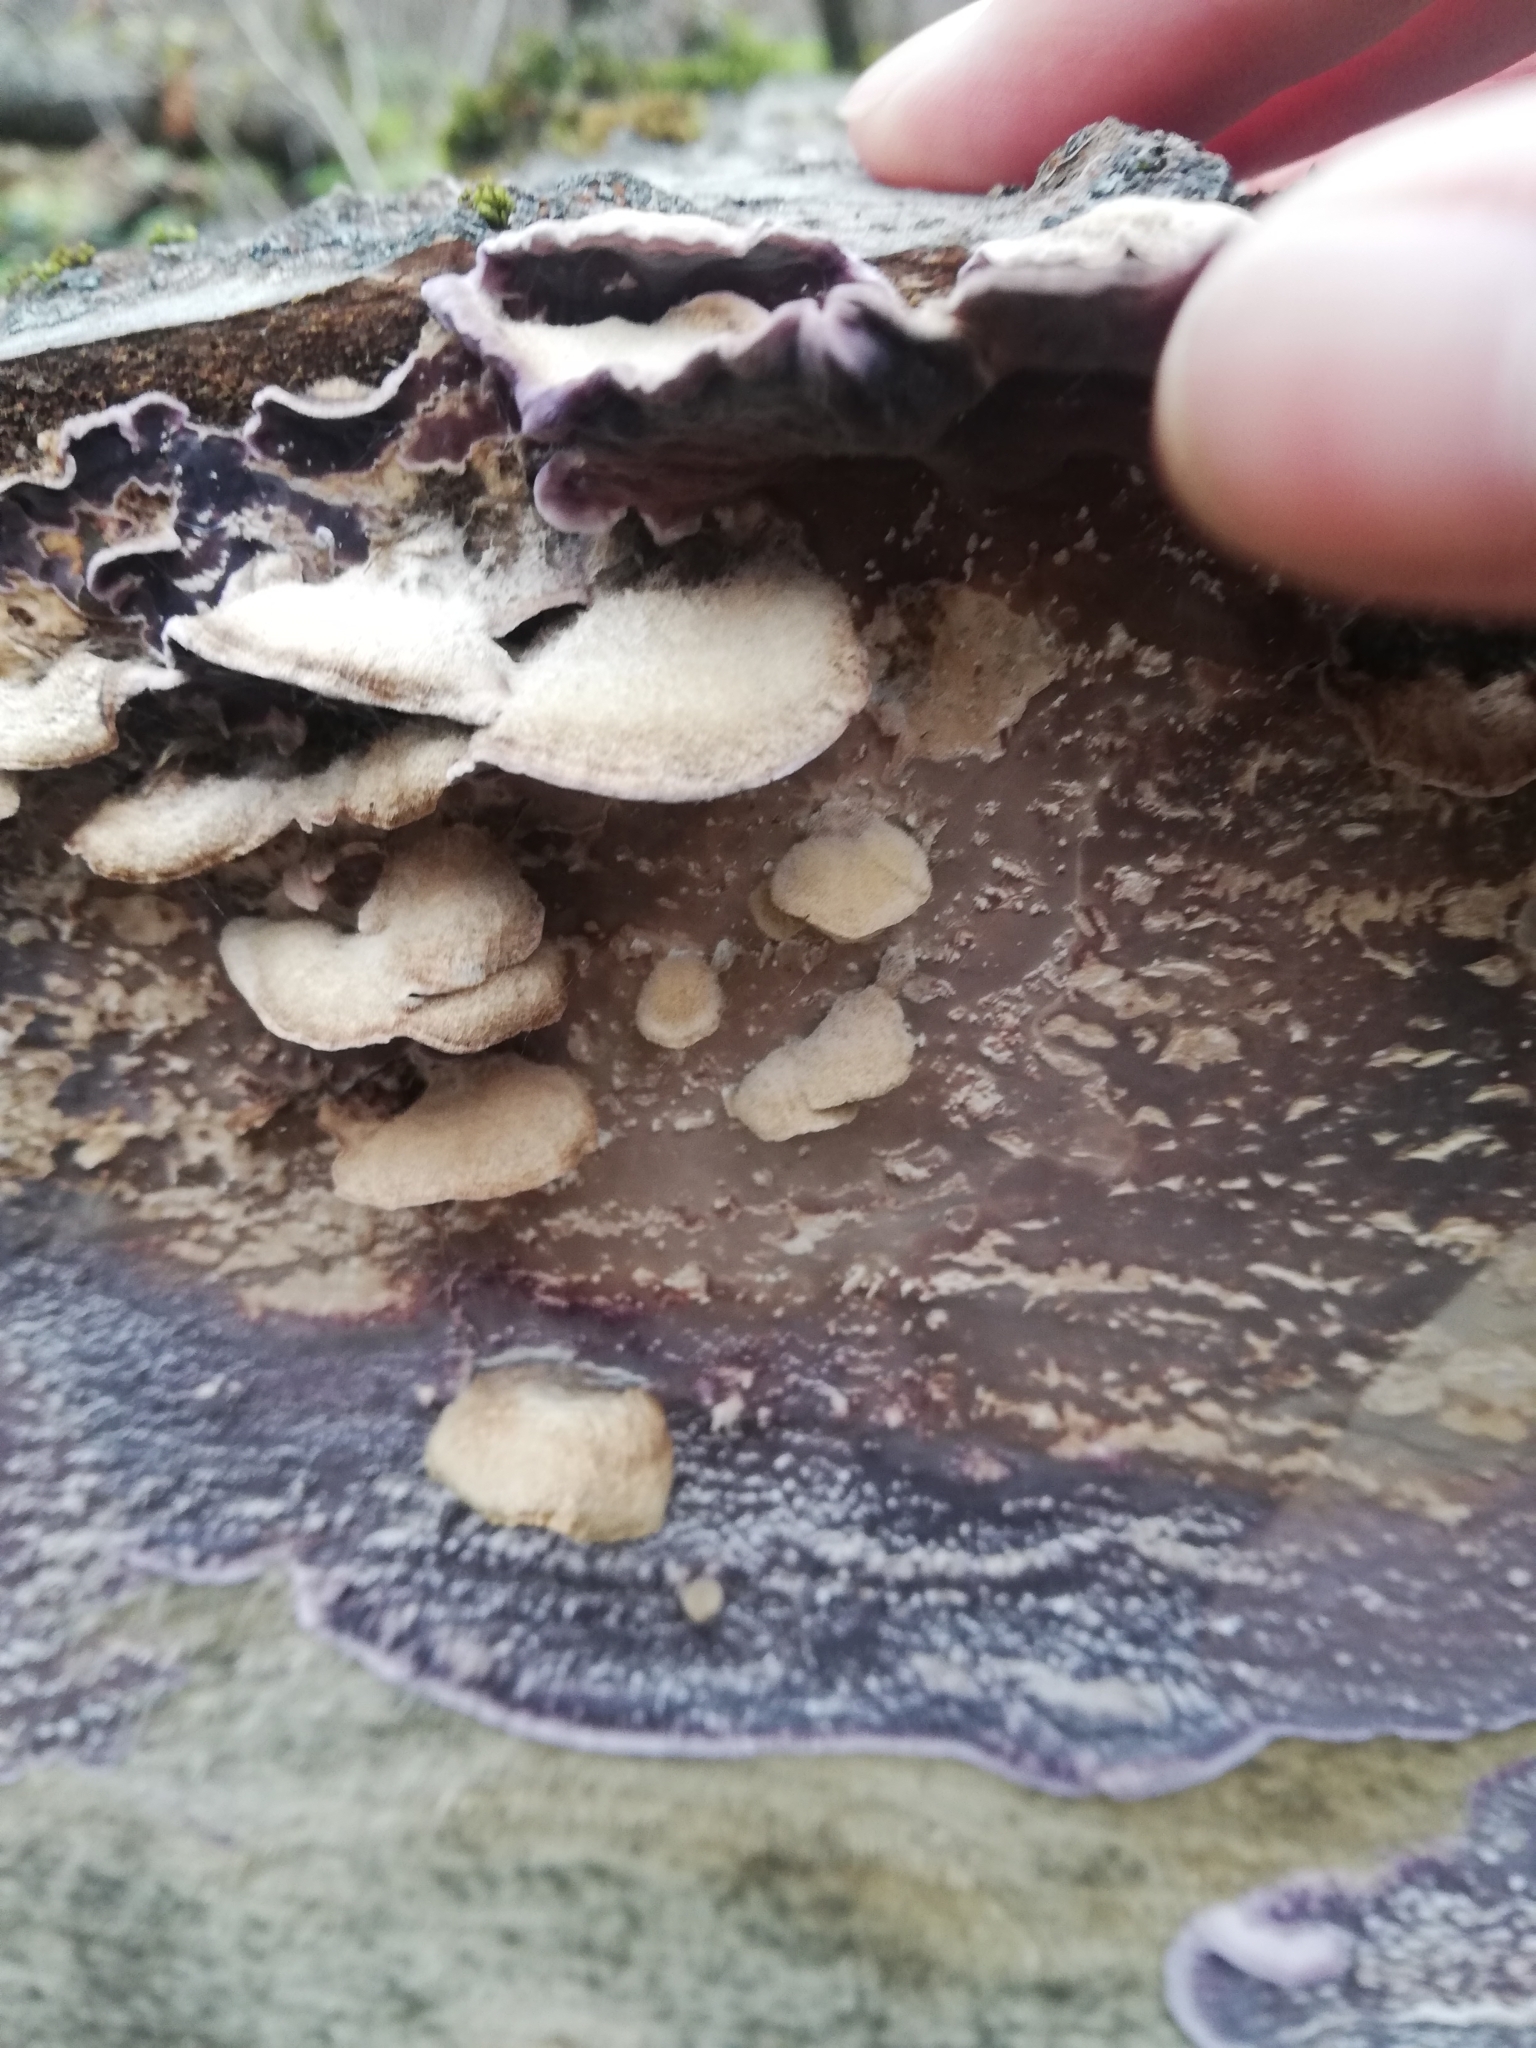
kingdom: Fungi
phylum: Basidiomycota
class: Agaricomycetes
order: Agaricales
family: Cyphellaceae
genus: Chondrostereum
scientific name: Chondrostereum purpureum
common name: Silver leaf disease
